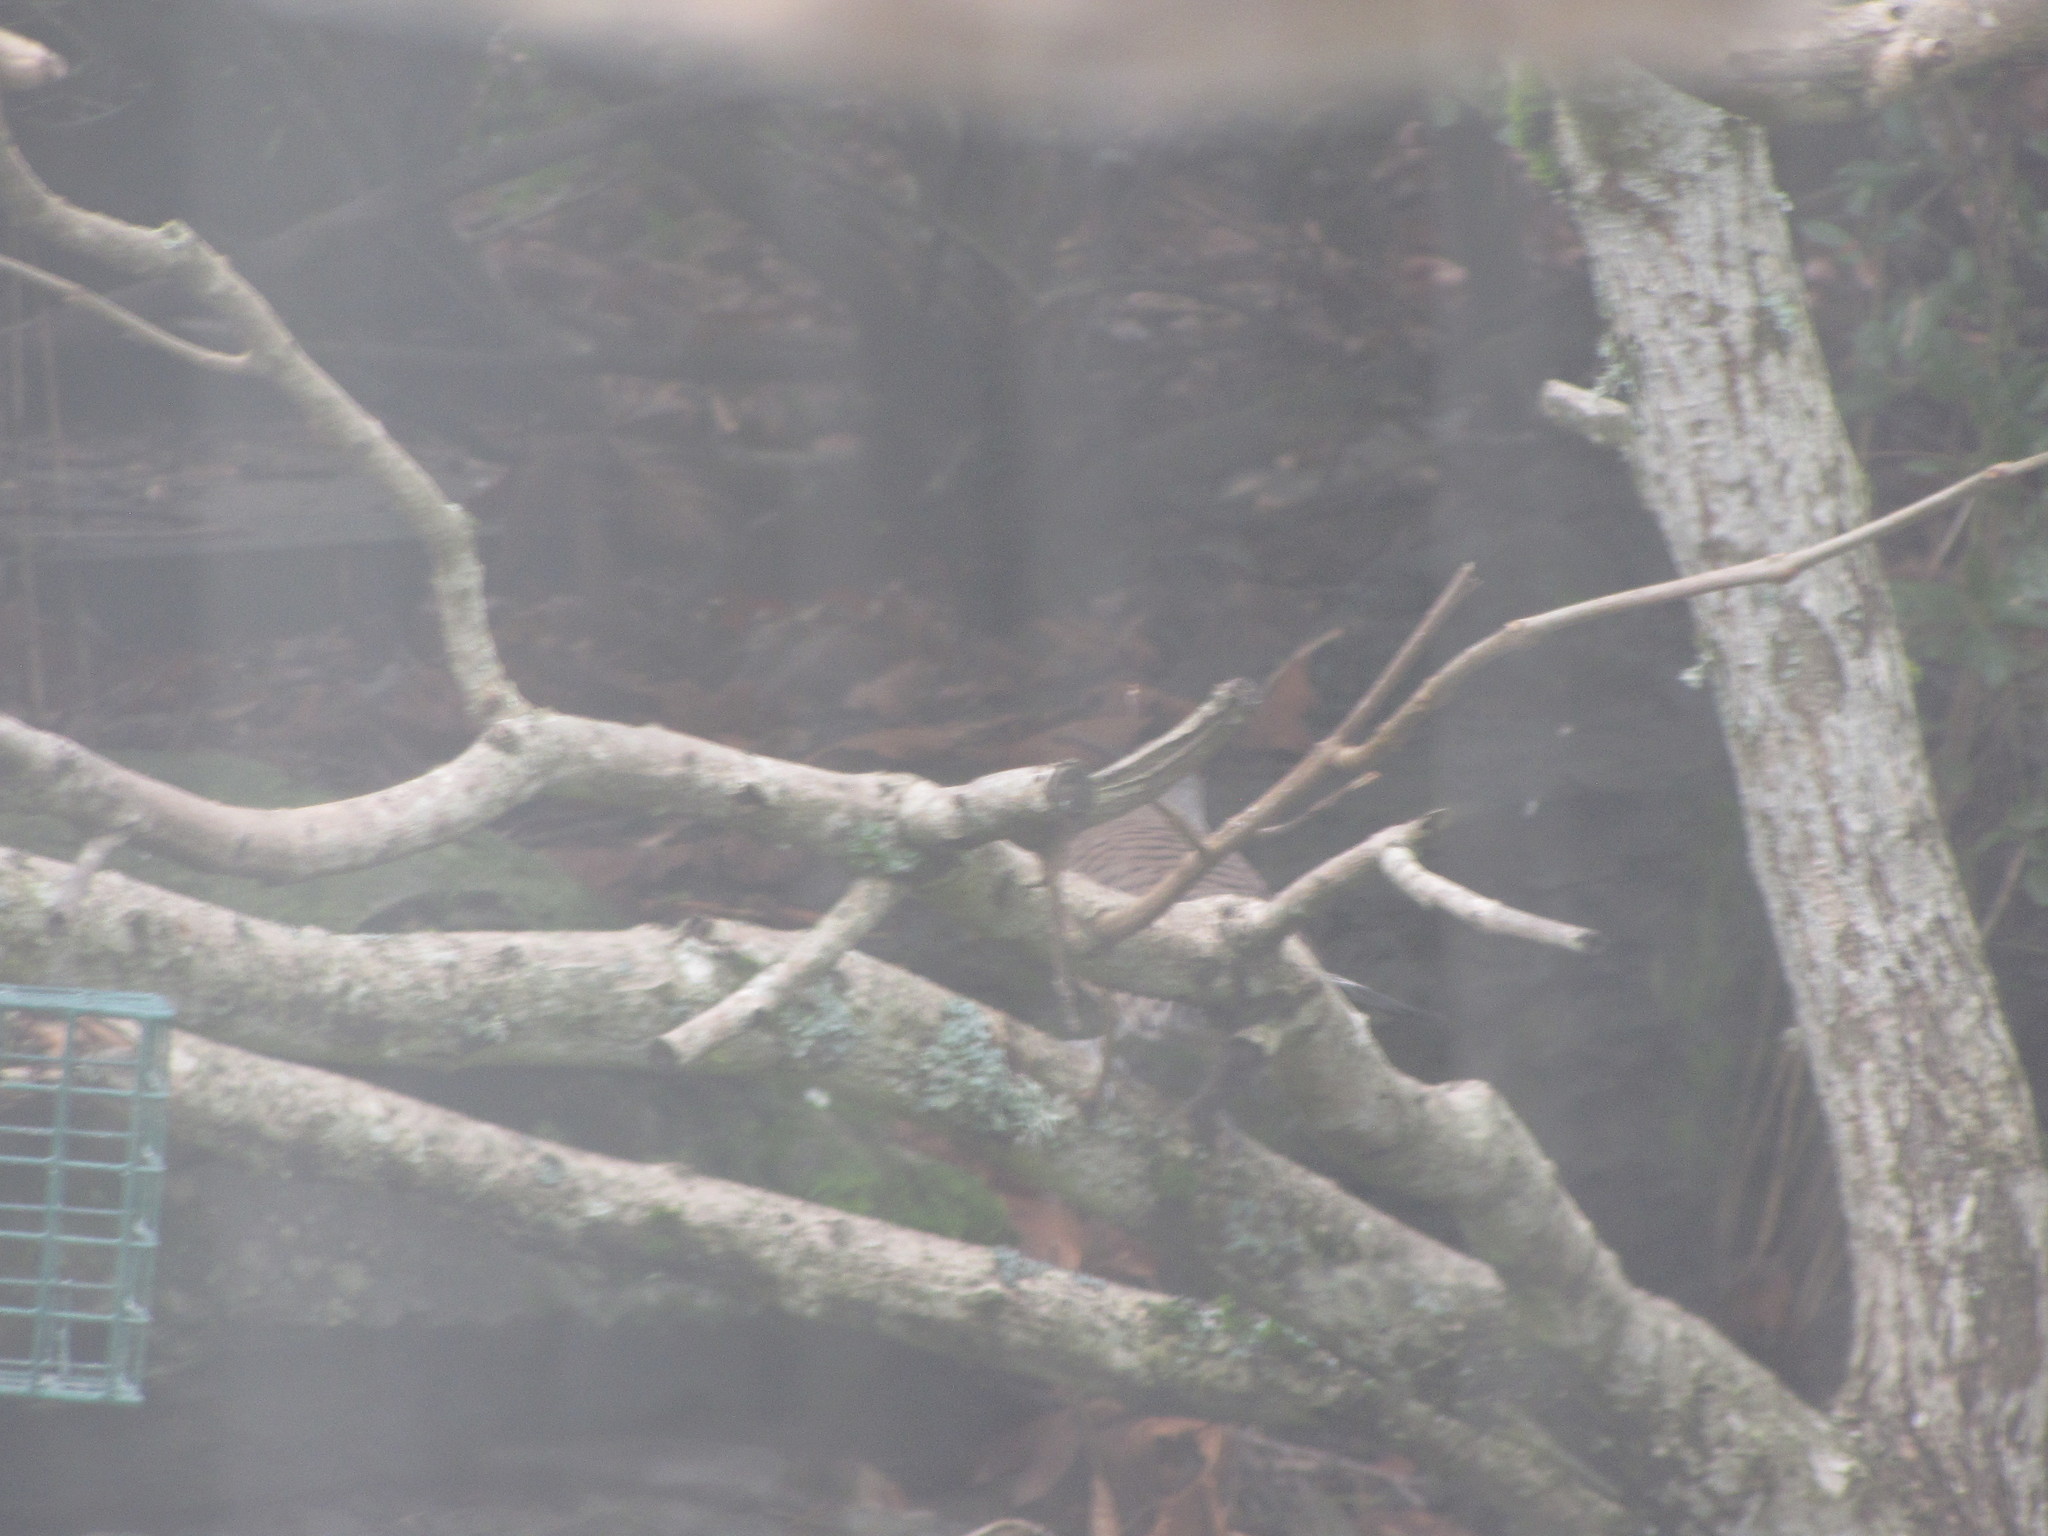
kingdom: Animalia
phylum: Chordata
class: Aves
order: Piciformes
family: Picidae
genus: Colaptes
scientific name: Colaptes auratus
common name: Northern flicker
